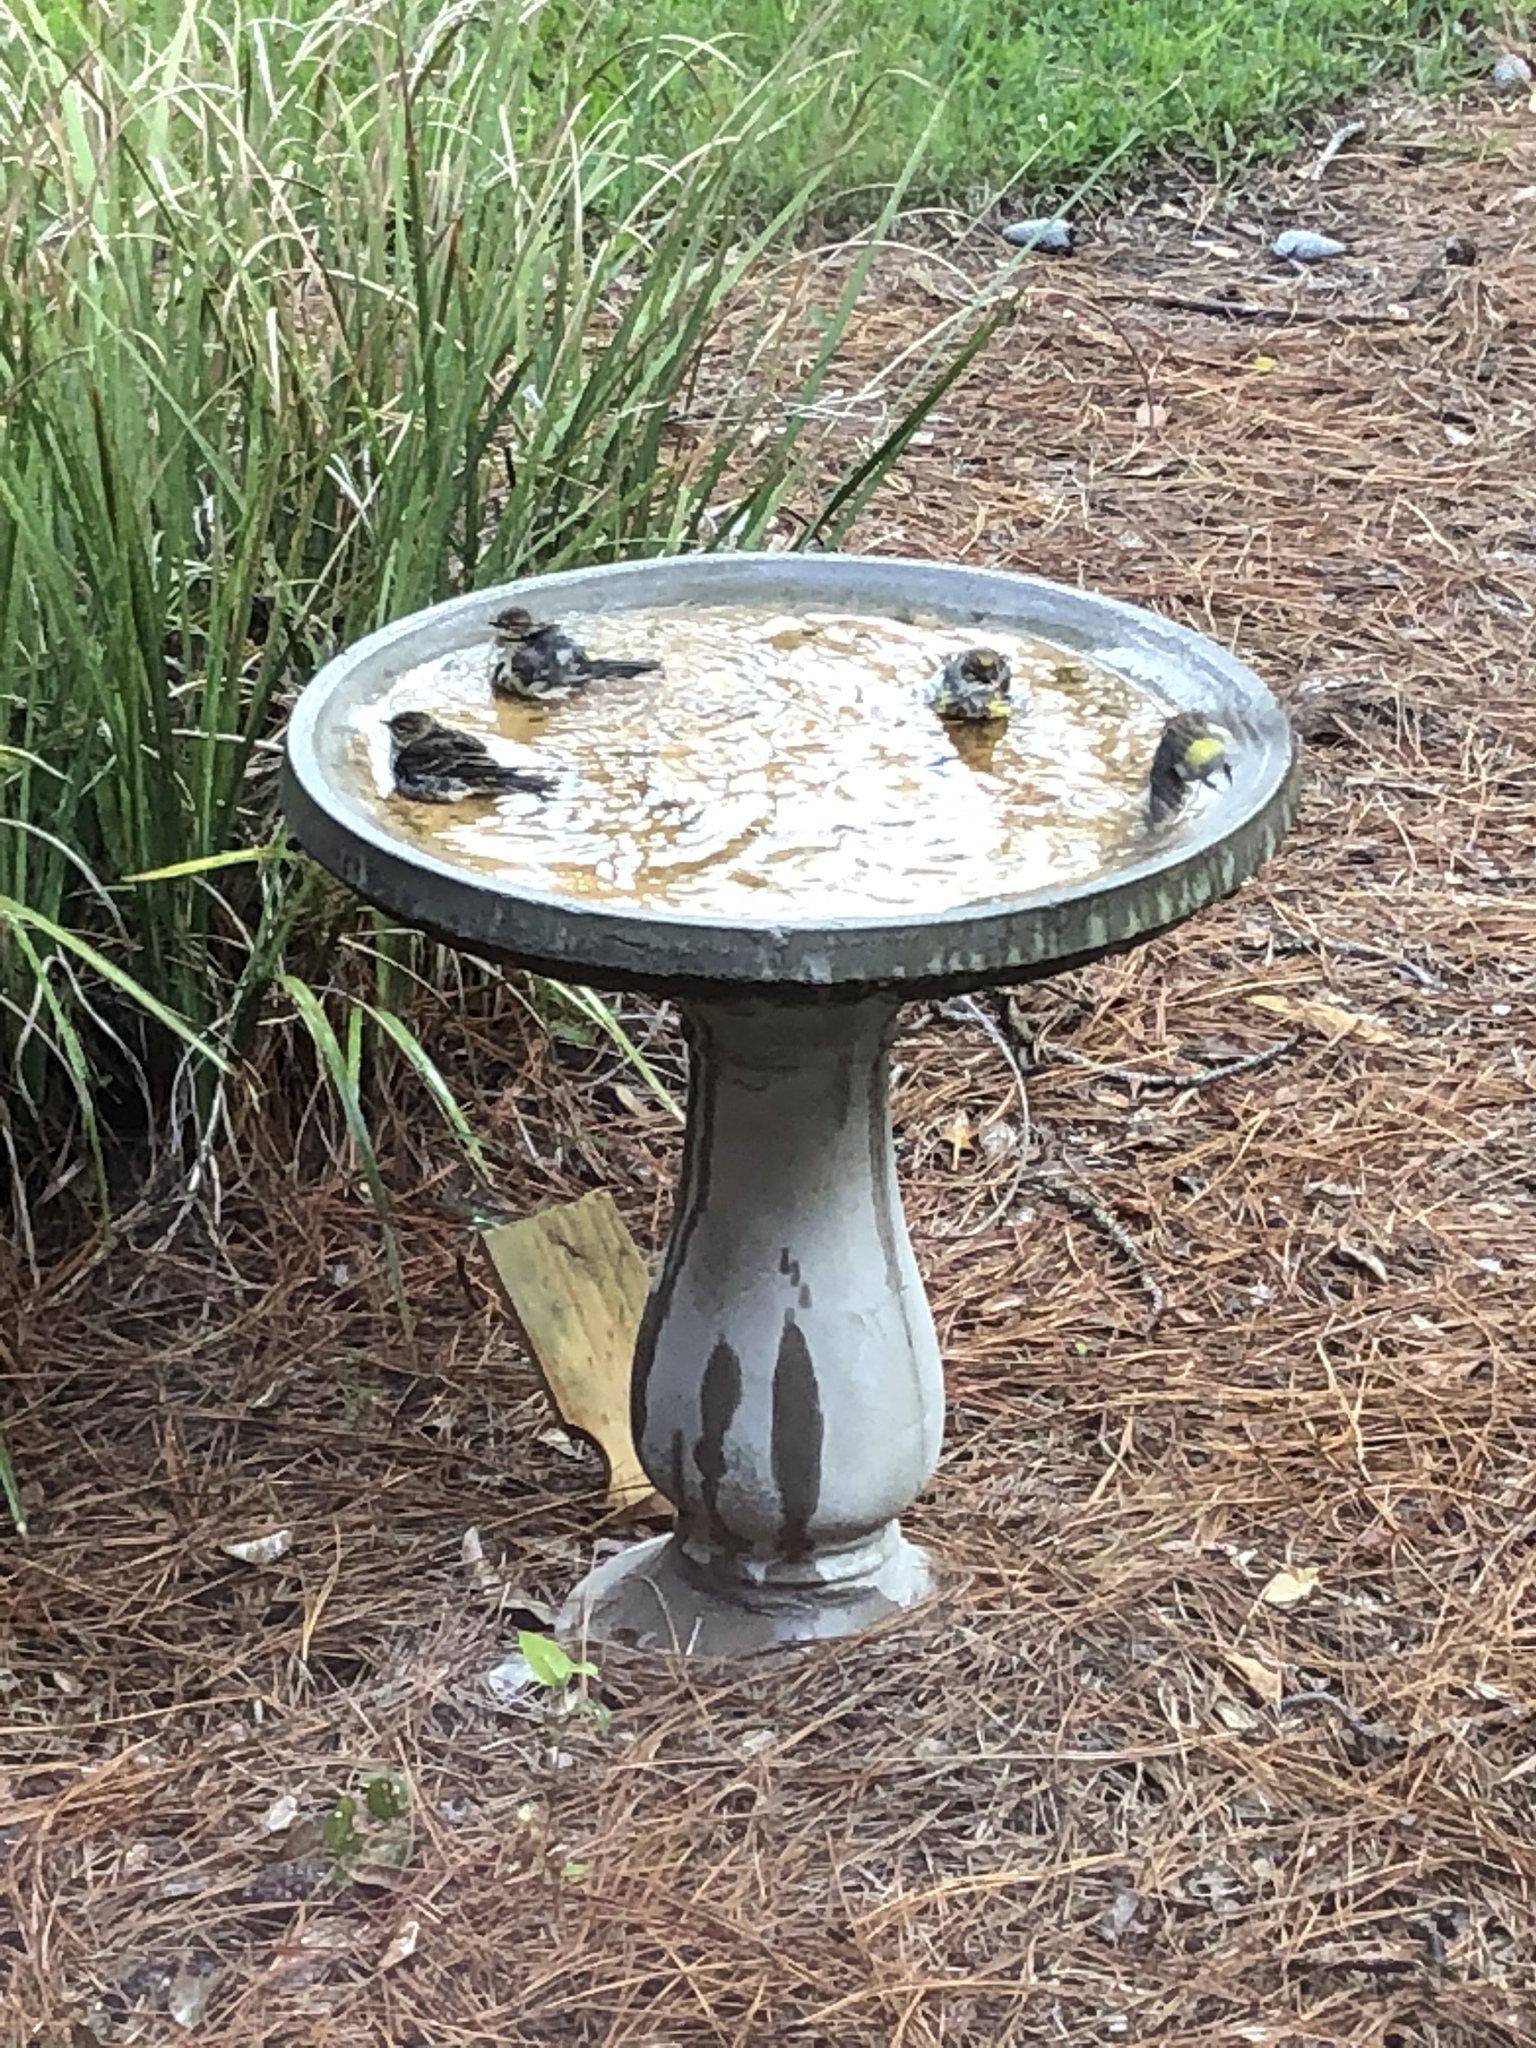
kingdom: Animalia
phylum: Chordata
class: Aves
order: Passeriformes
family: Parulidae
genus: Setophaga
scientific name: Setophaga coronata
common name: Myrtle warbler
